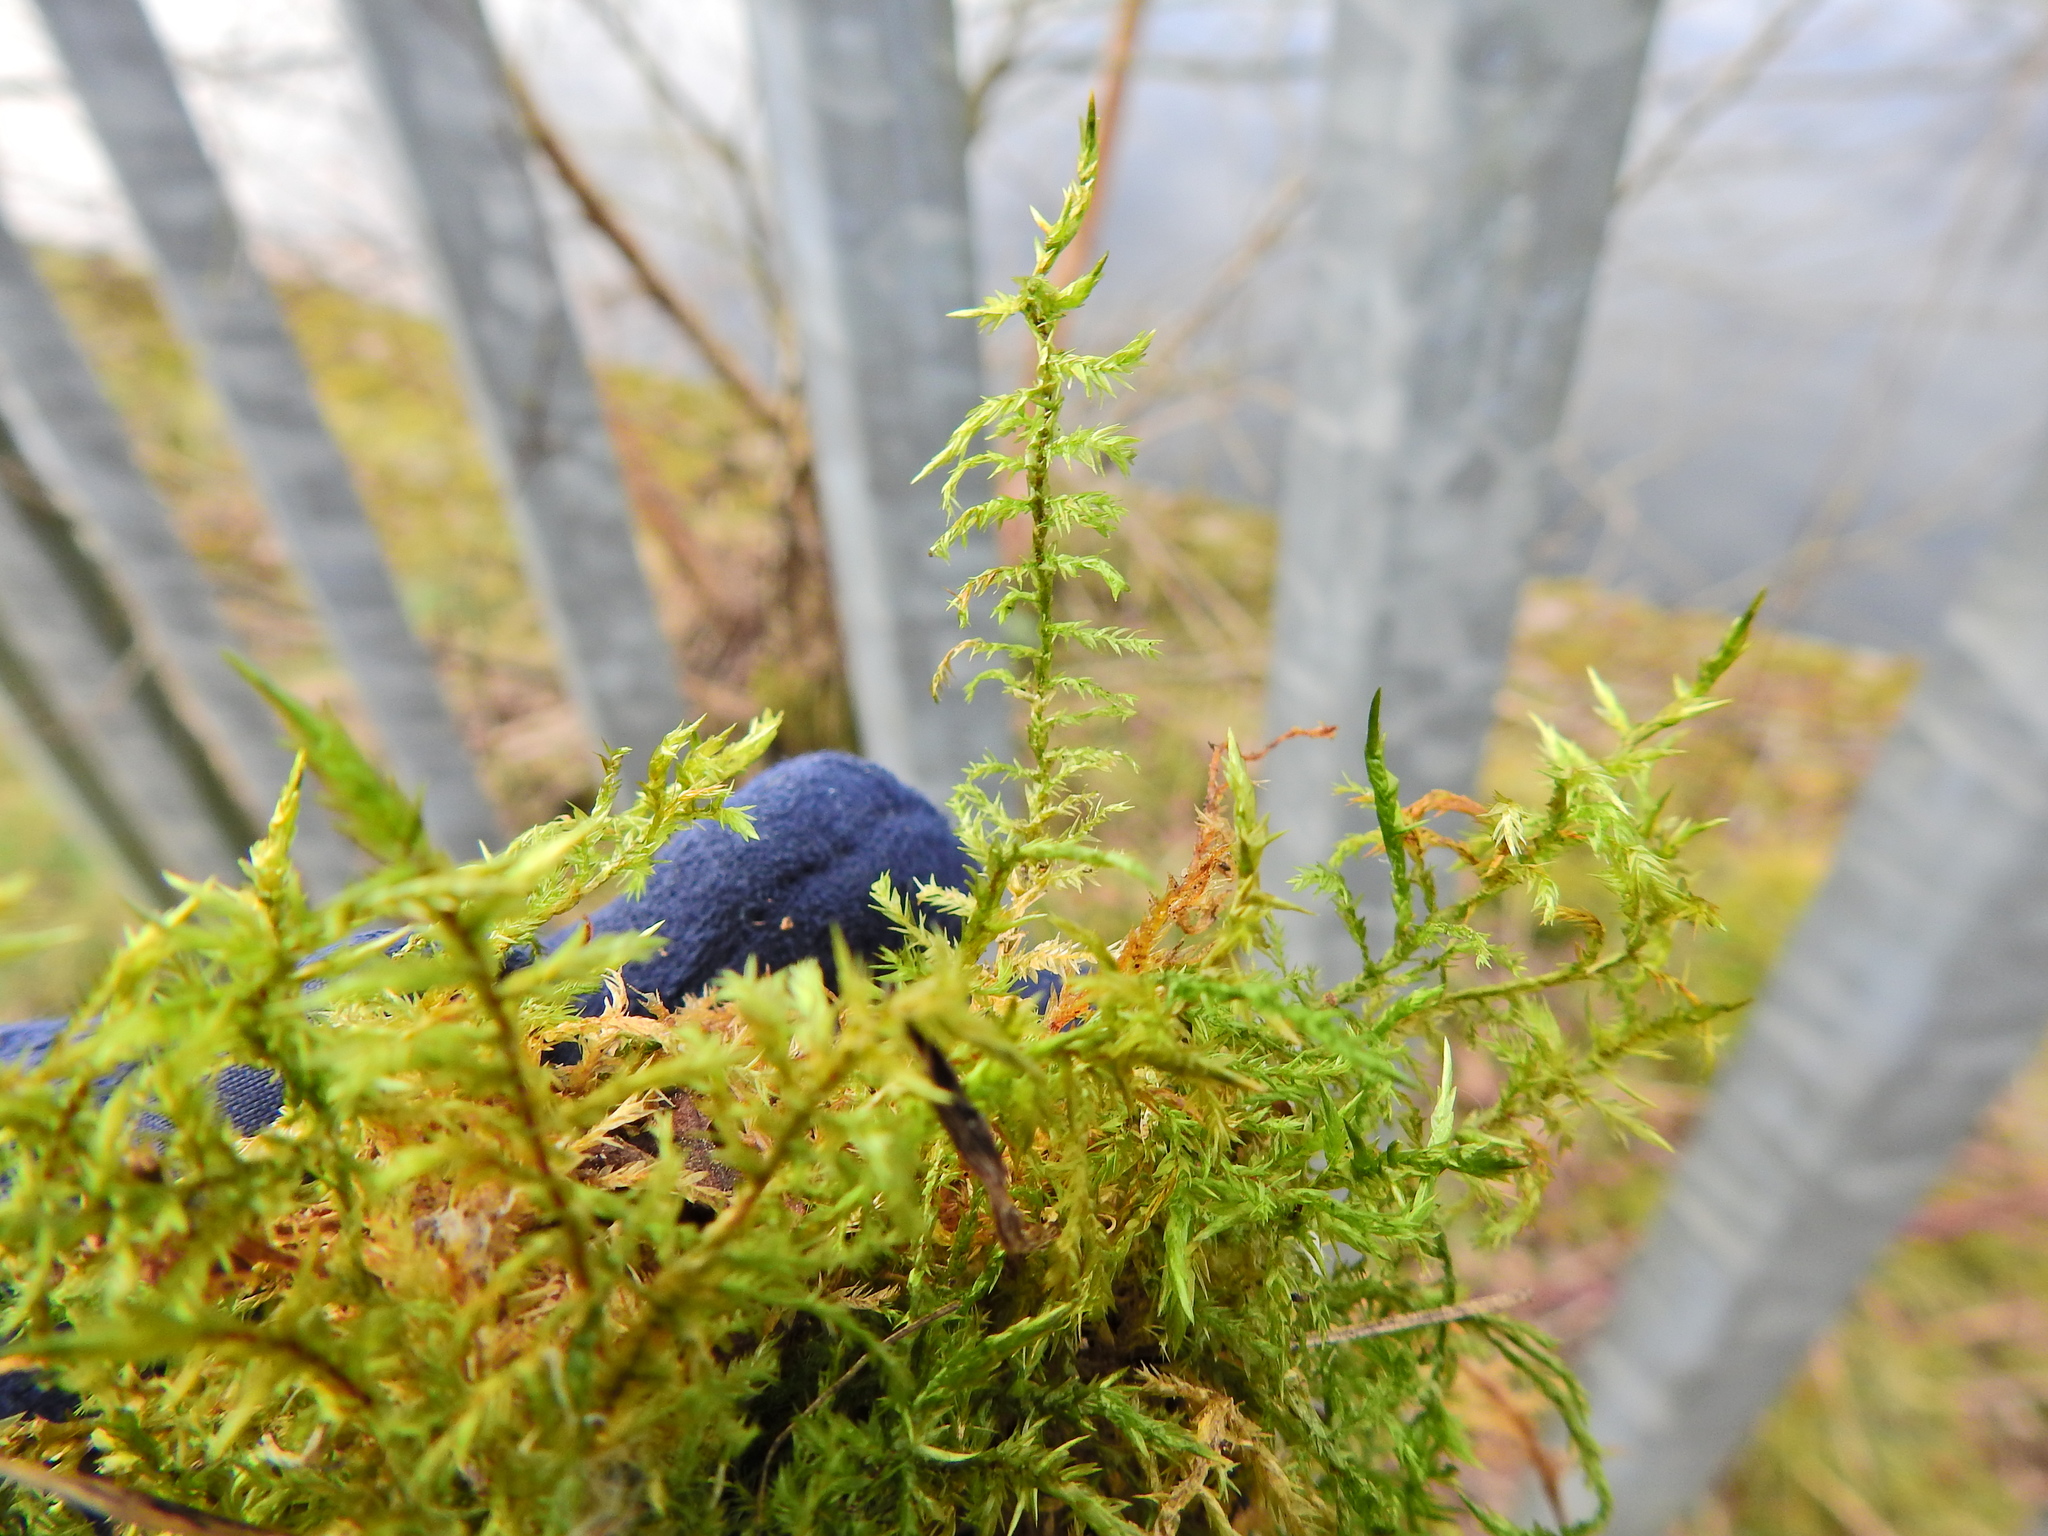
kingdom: Plantae
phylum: Bryophyta
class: Bryopsida
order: Hypnales
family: Pylaisiaceae
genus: Calliergonella
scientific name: Calliergonella cuspidata
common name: Common large wetland moss
